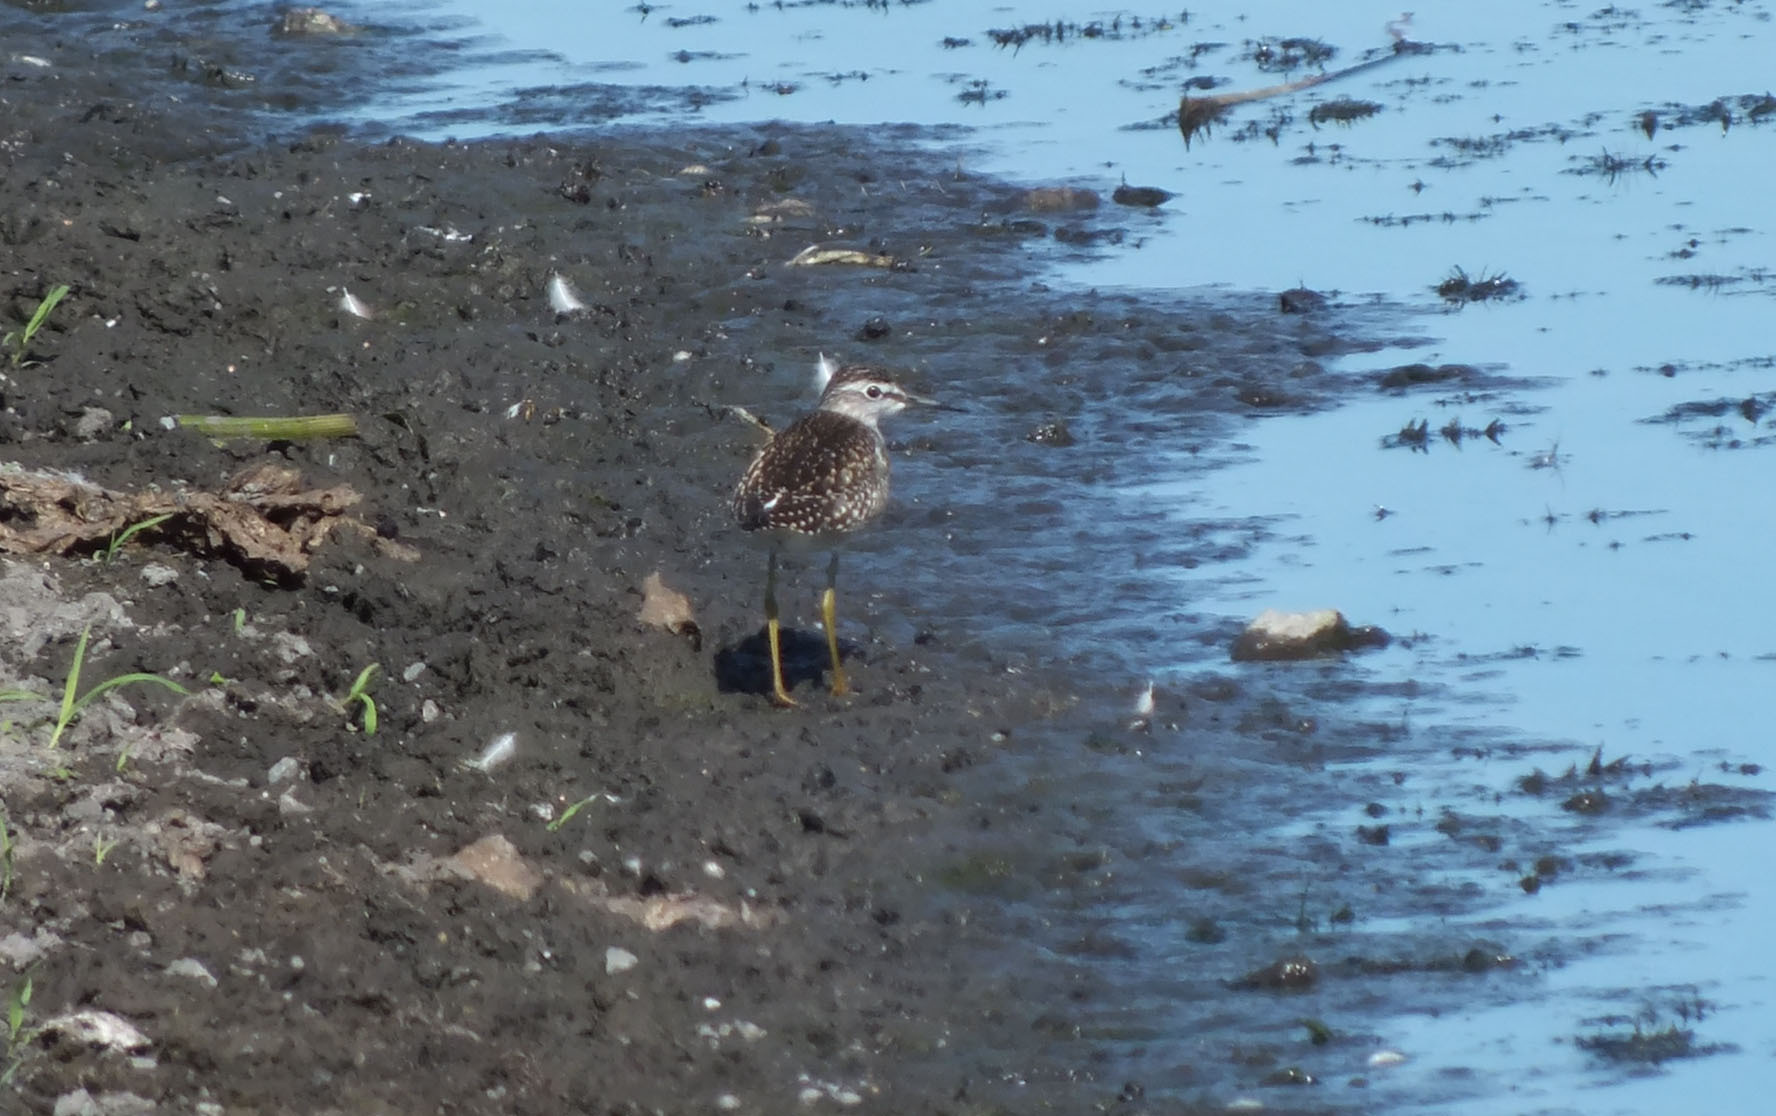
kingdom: Animalia
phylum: Chordata
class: Aves
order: Charadriiformes
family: Scolopacidae
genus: Tringa
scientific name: Tringa glareola
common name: Wood sandpiper
